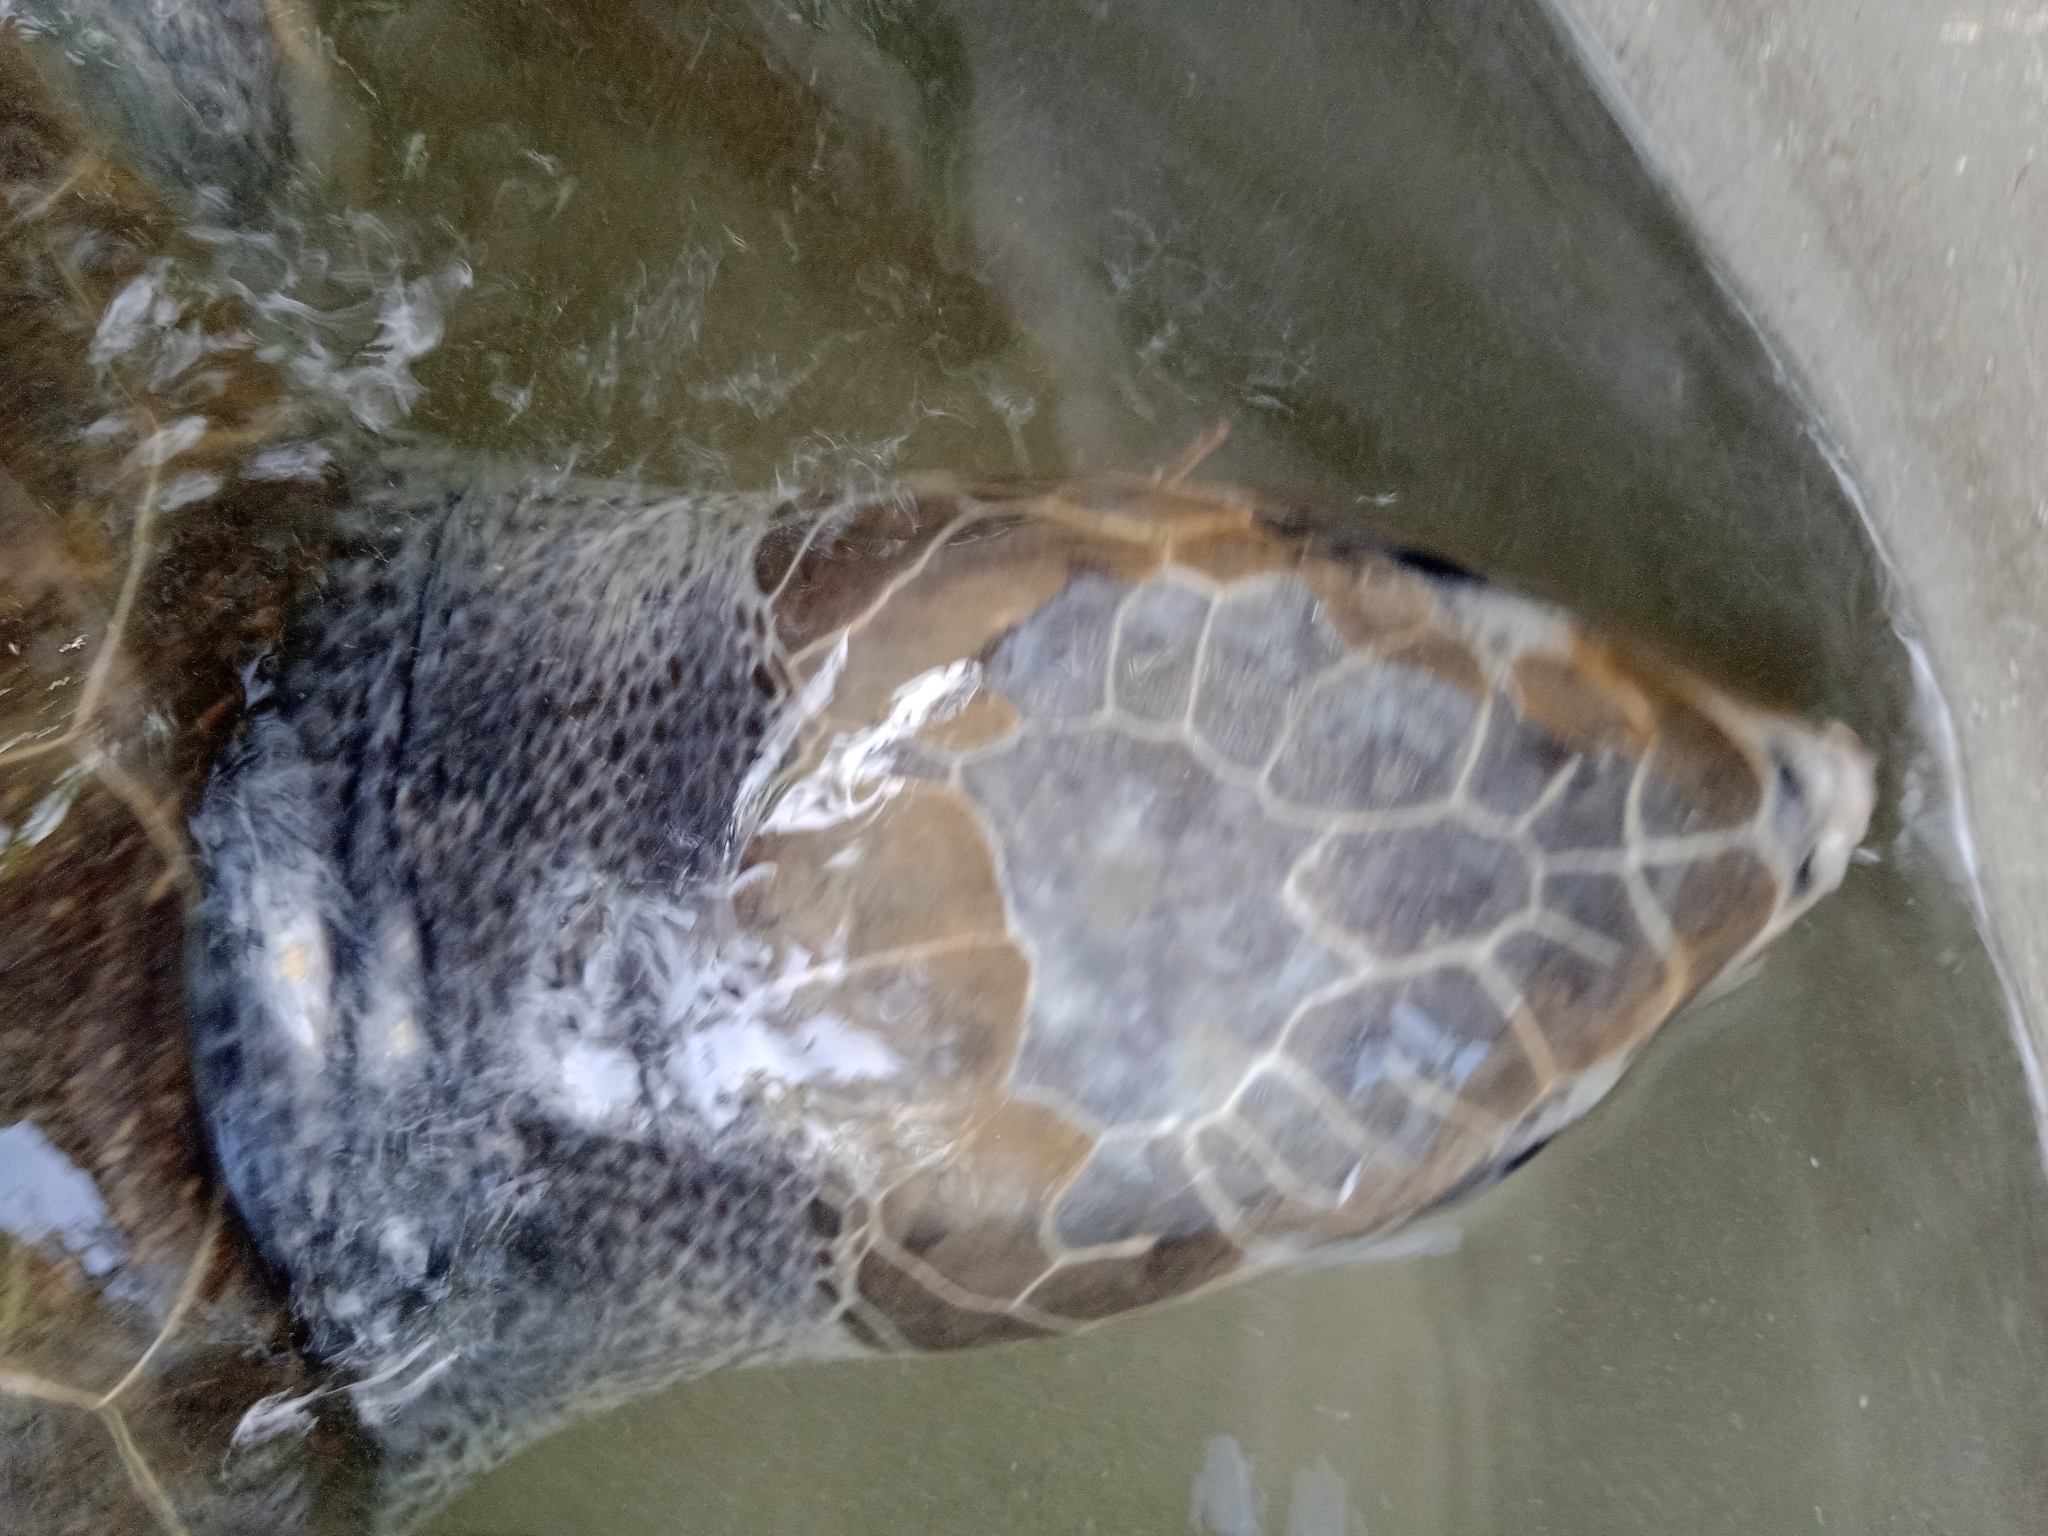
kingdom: Animalia
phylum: Chordata
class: Testudines
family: Cheloniidae
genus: Lepidochelys
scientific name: Lepidochelys olivacea
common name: Olive ridley
